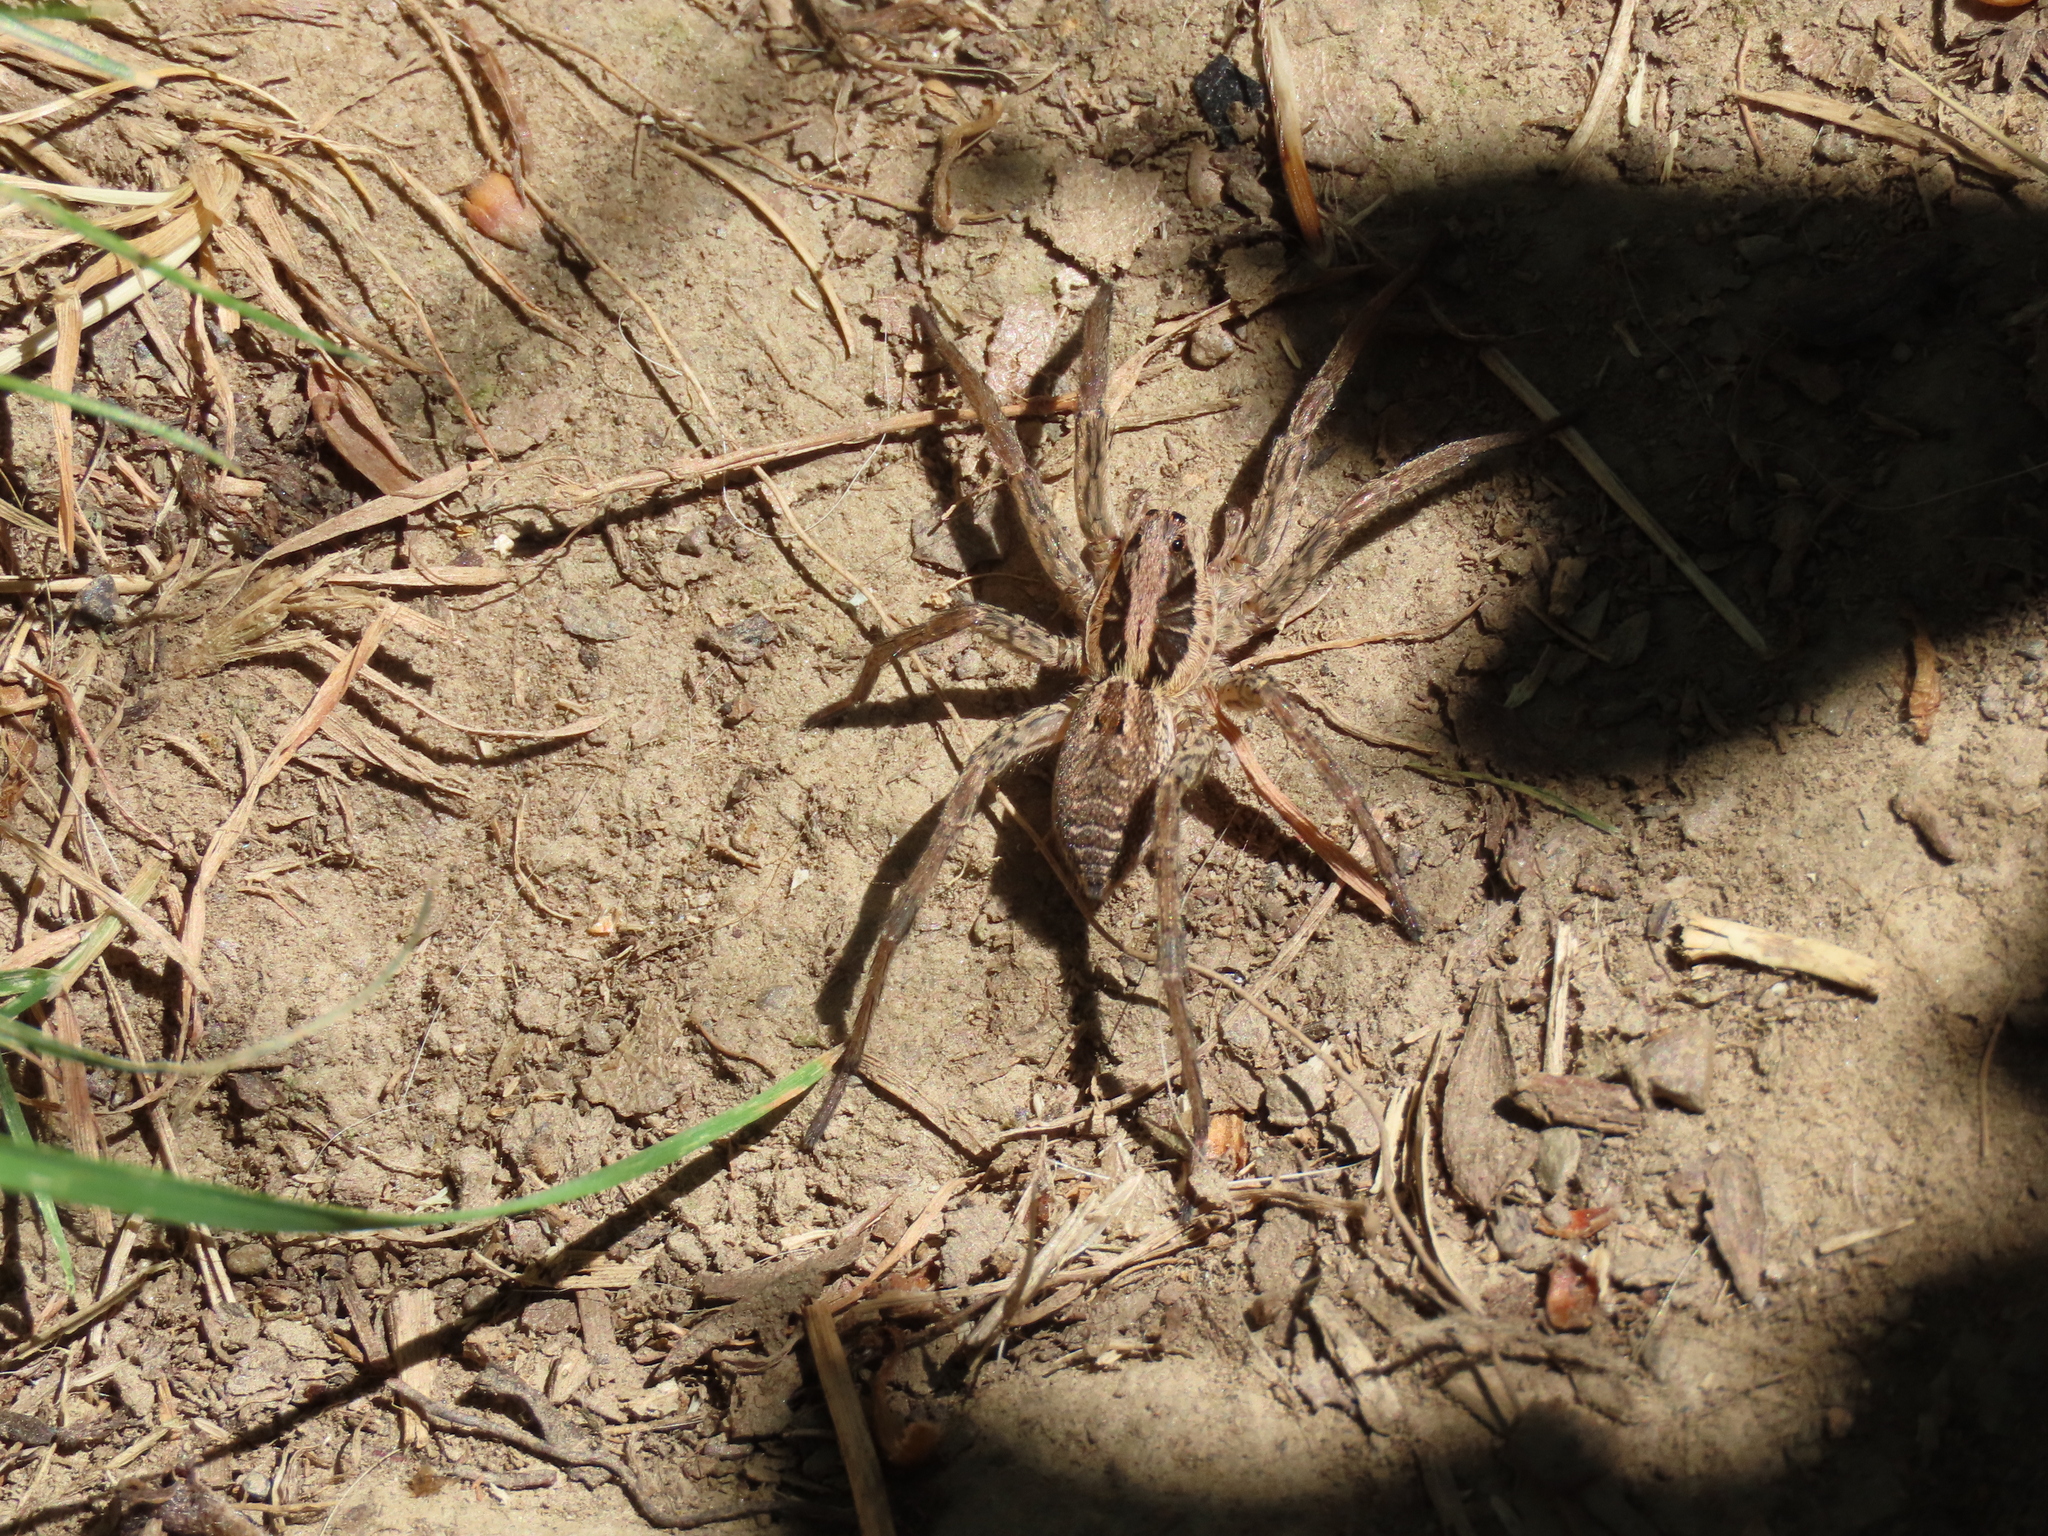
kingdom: Animalia
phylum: Arthropoda
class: Arachnida
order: Araneae
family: Lycosidae
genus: Hogna
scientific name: Hogna radiata
